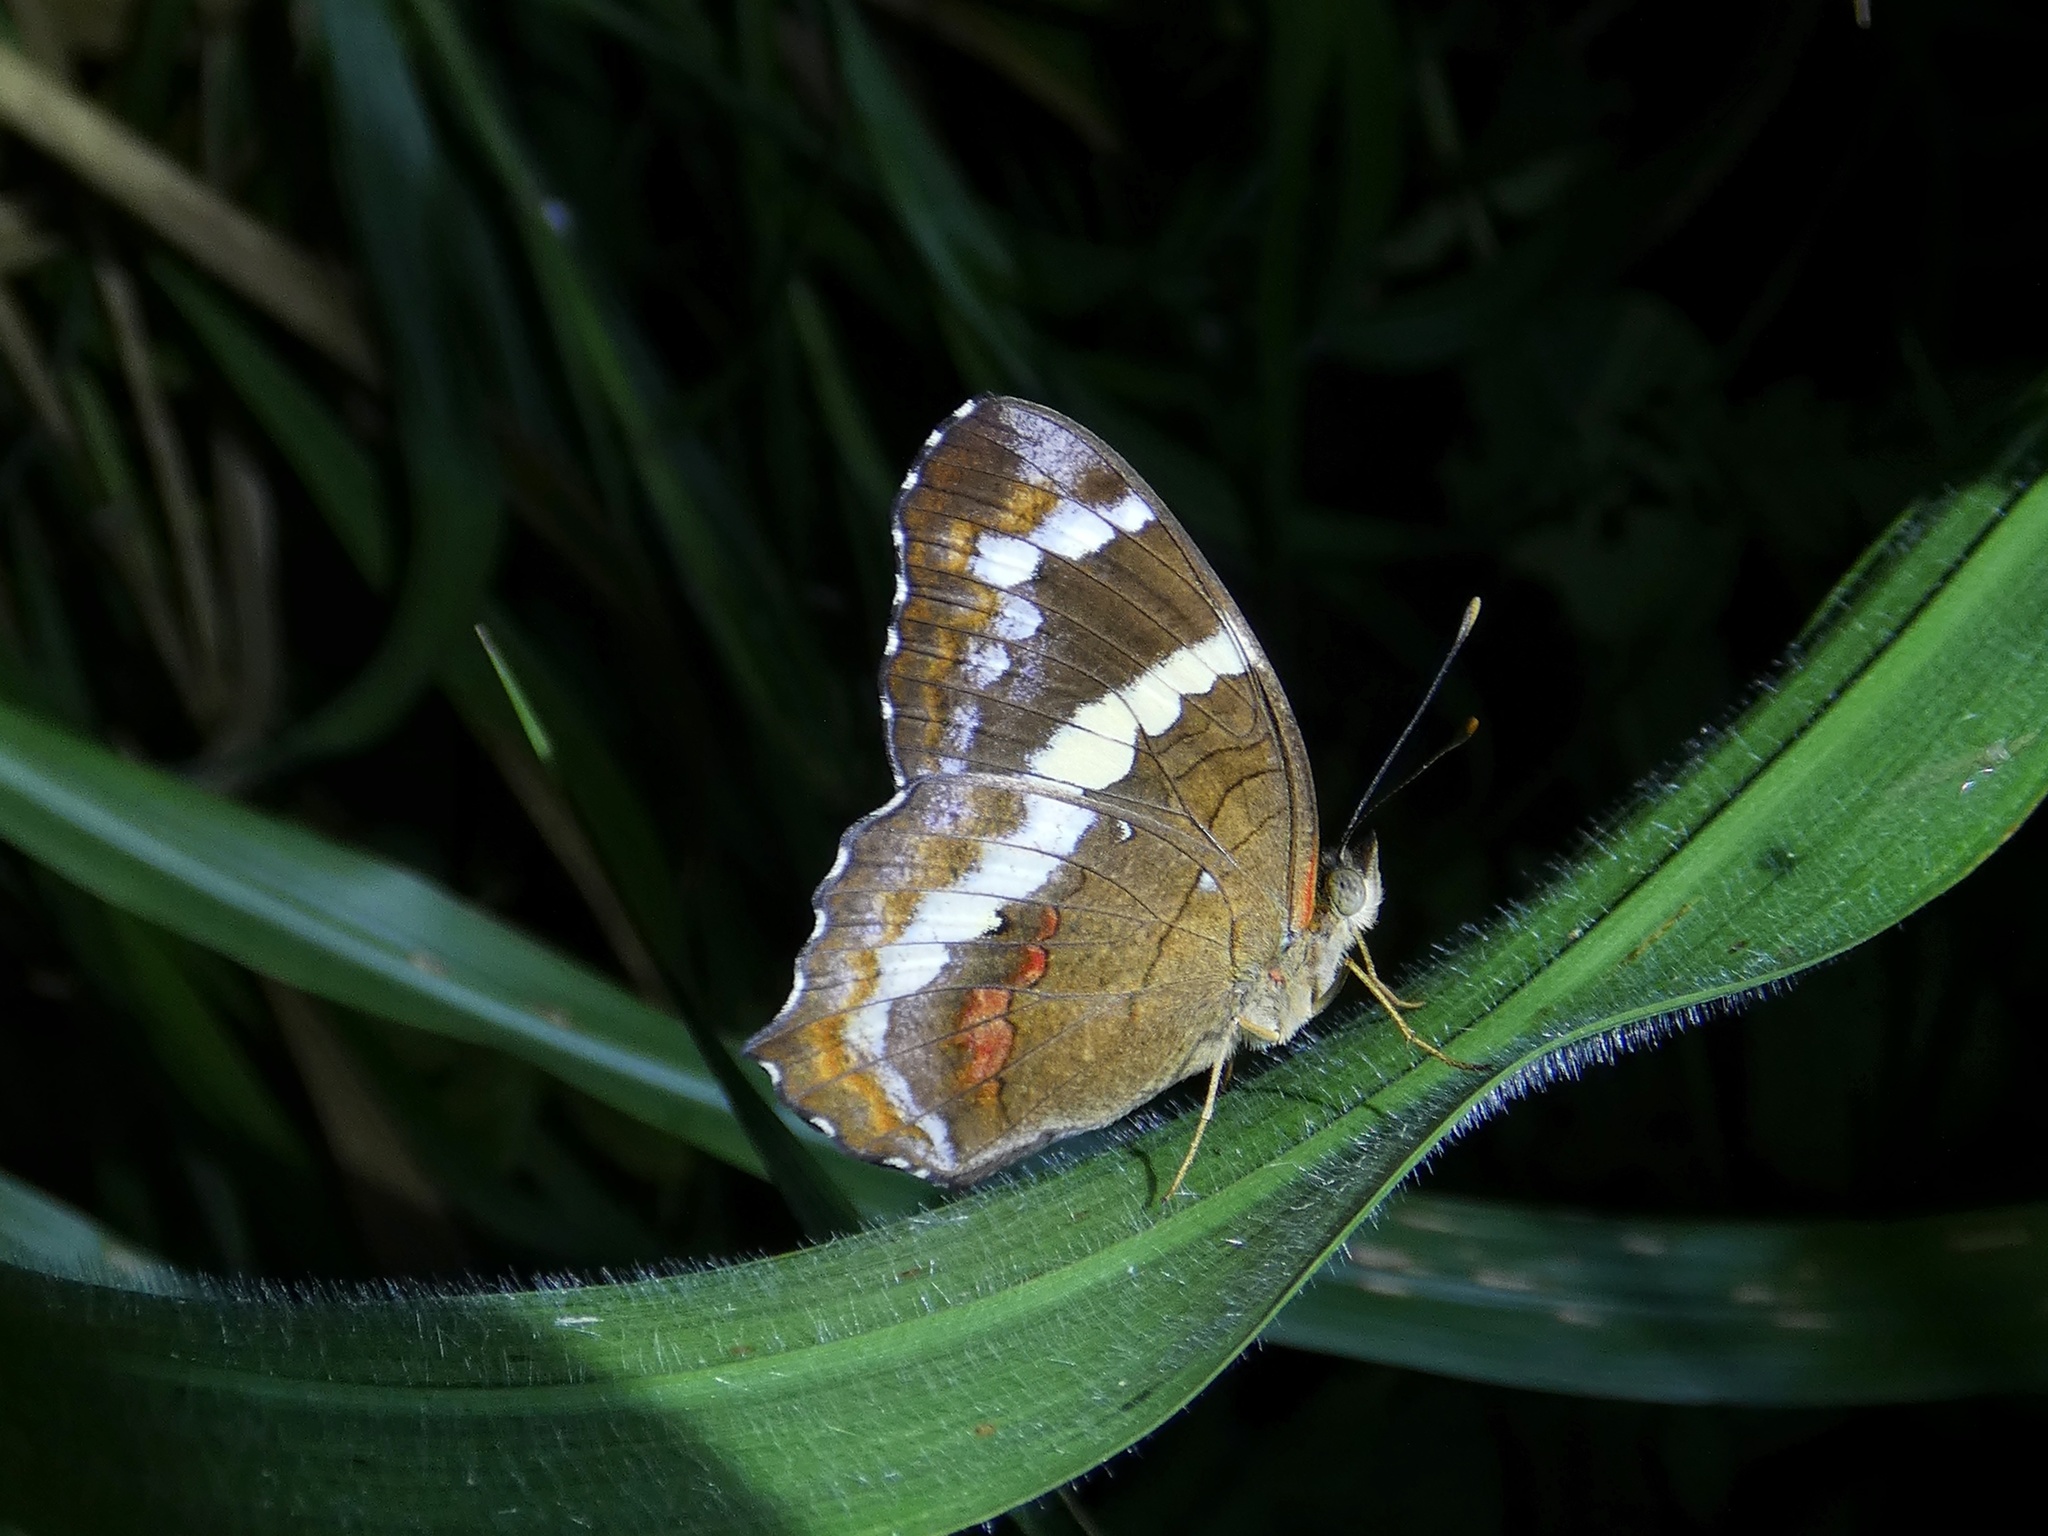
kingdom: Animalia
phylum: Arthropoda
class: Insecta
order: Lepidoptera
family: Nymphalidae
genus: Anartia
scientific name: Anartia fatima
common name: Banded peacock
